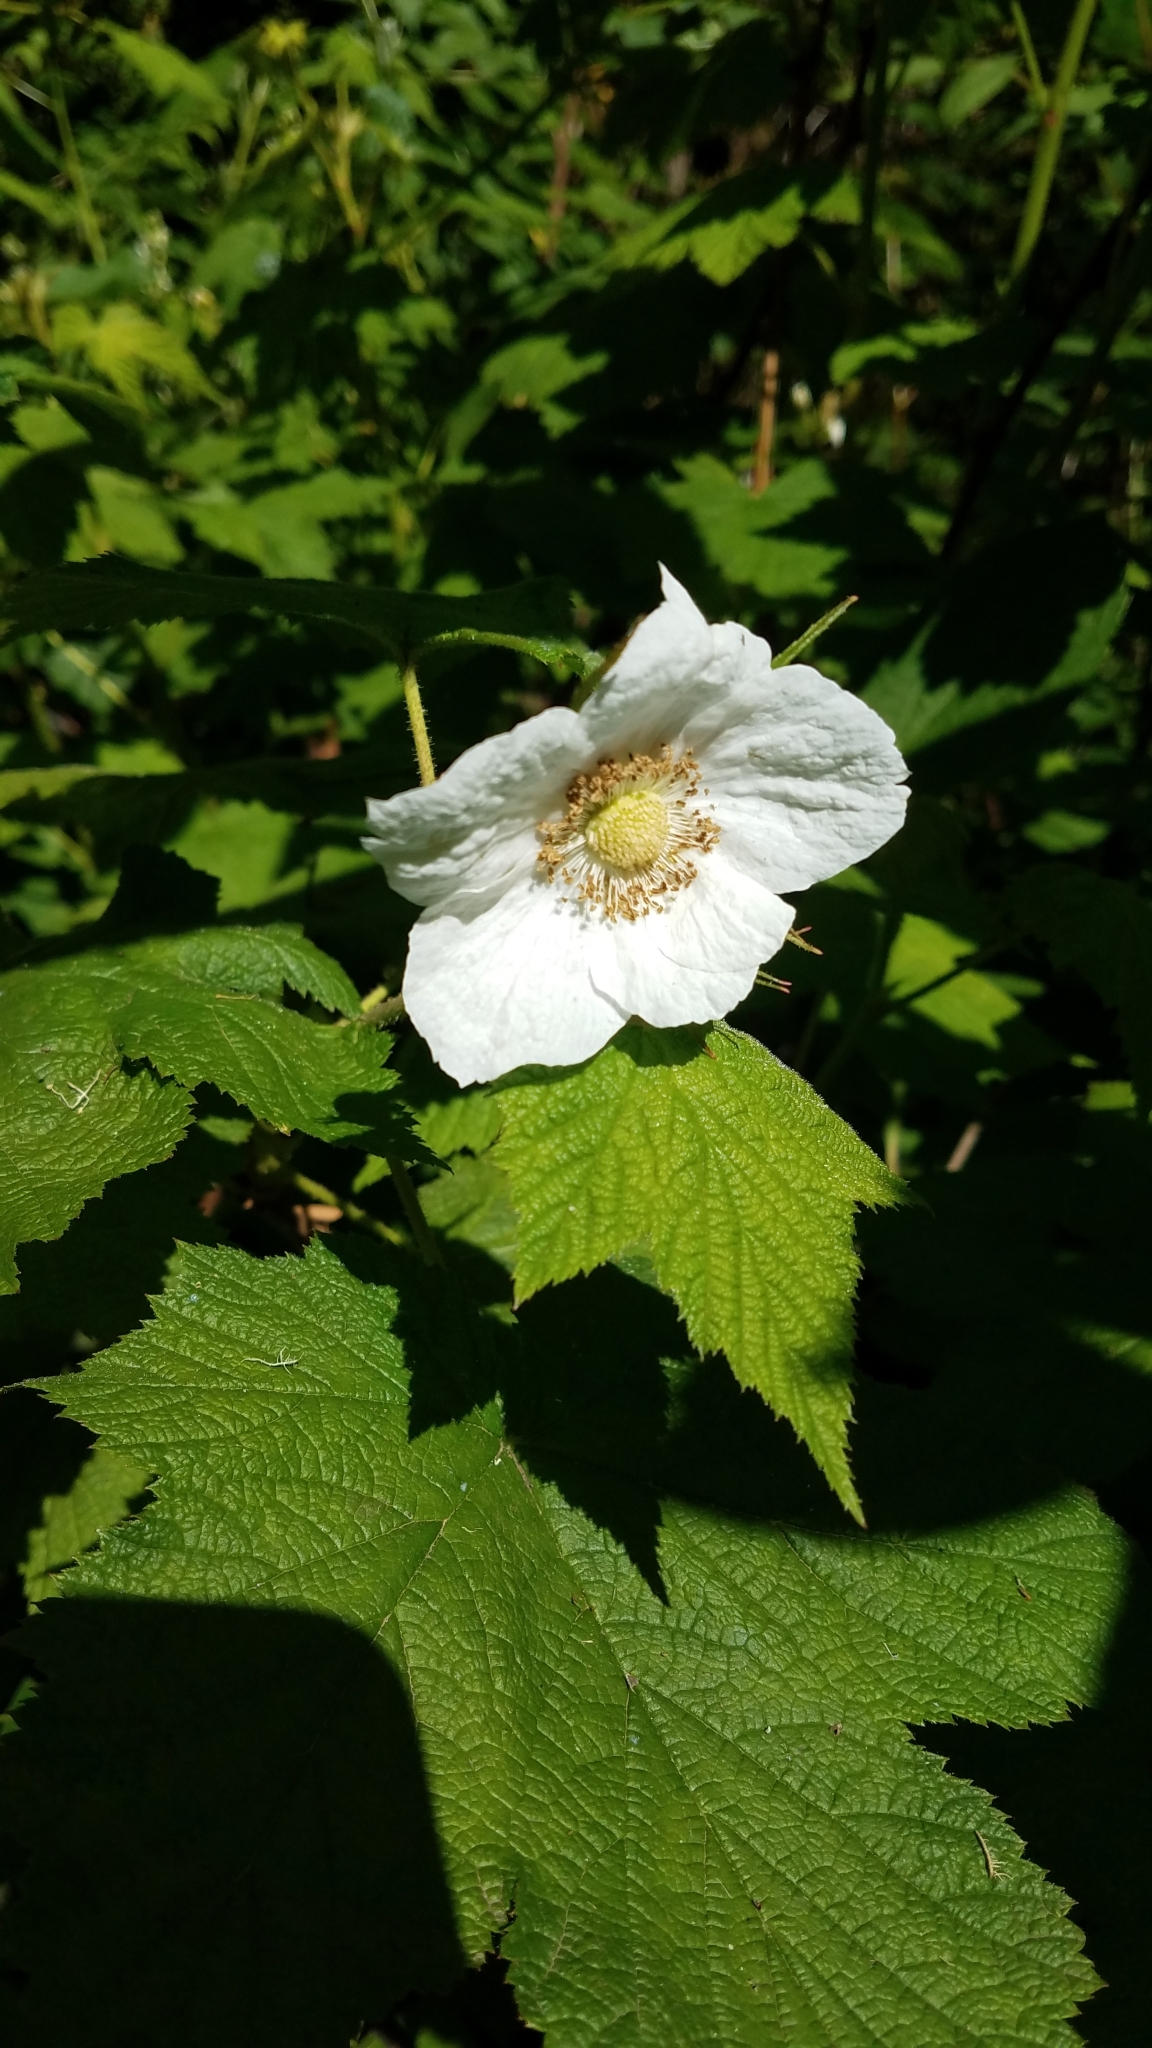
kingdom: Plantae
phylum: Tracheophyta
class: Magnoliopsida
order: Rosales
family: Rosaceae
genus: Rubus
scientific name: Rubus parviflorus
